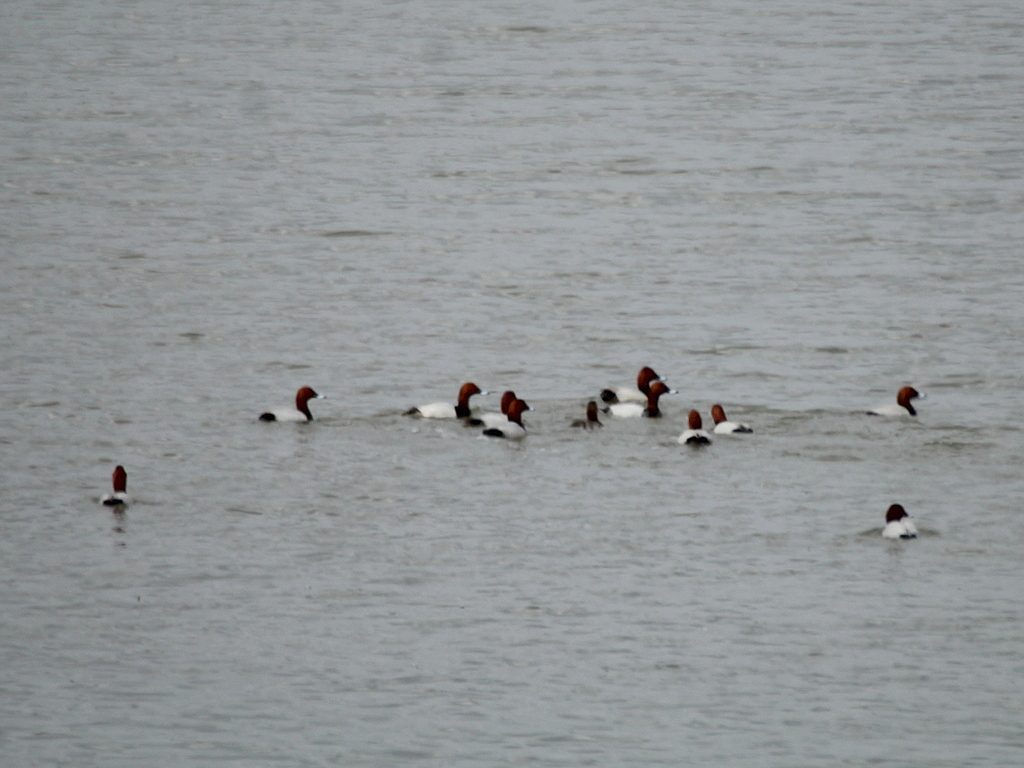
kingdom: Animalia
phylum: Chordata
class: Aves
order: Anseriformes
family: Anatidae
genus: Aythya
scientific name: Aythya ferina
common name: Common pochard
